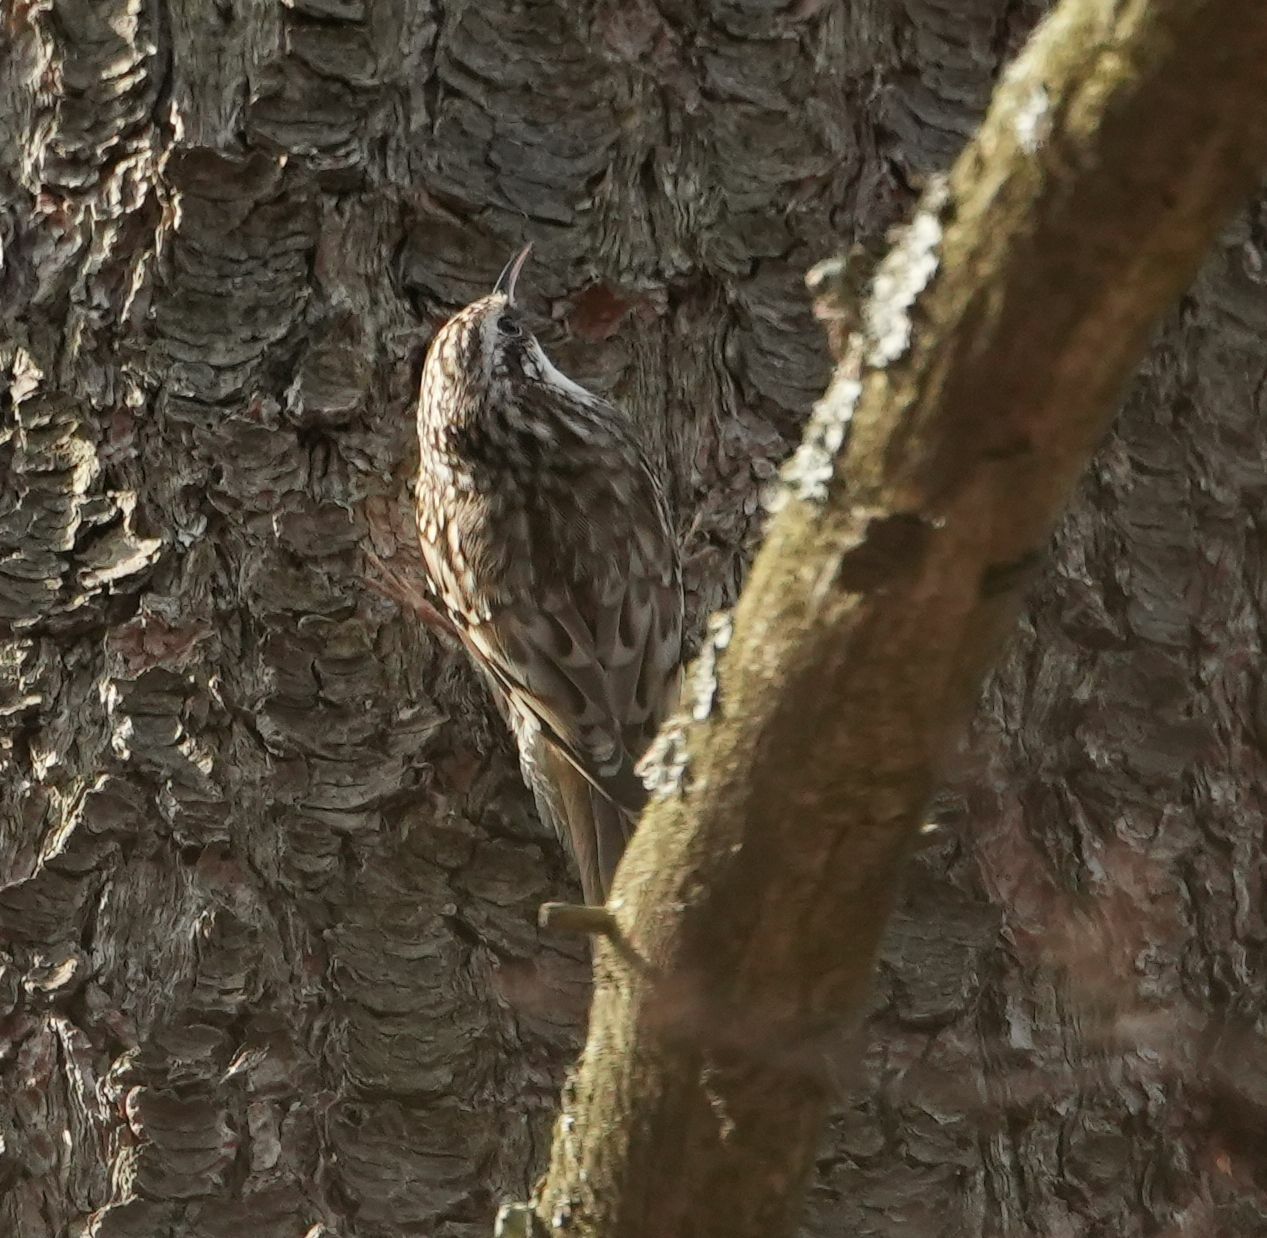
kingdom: Animalia
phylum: Chordata
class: Aves
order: Passeriformes
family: Certhiidae
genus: Certhia
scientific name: Certhia americana
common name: Brown creeper
